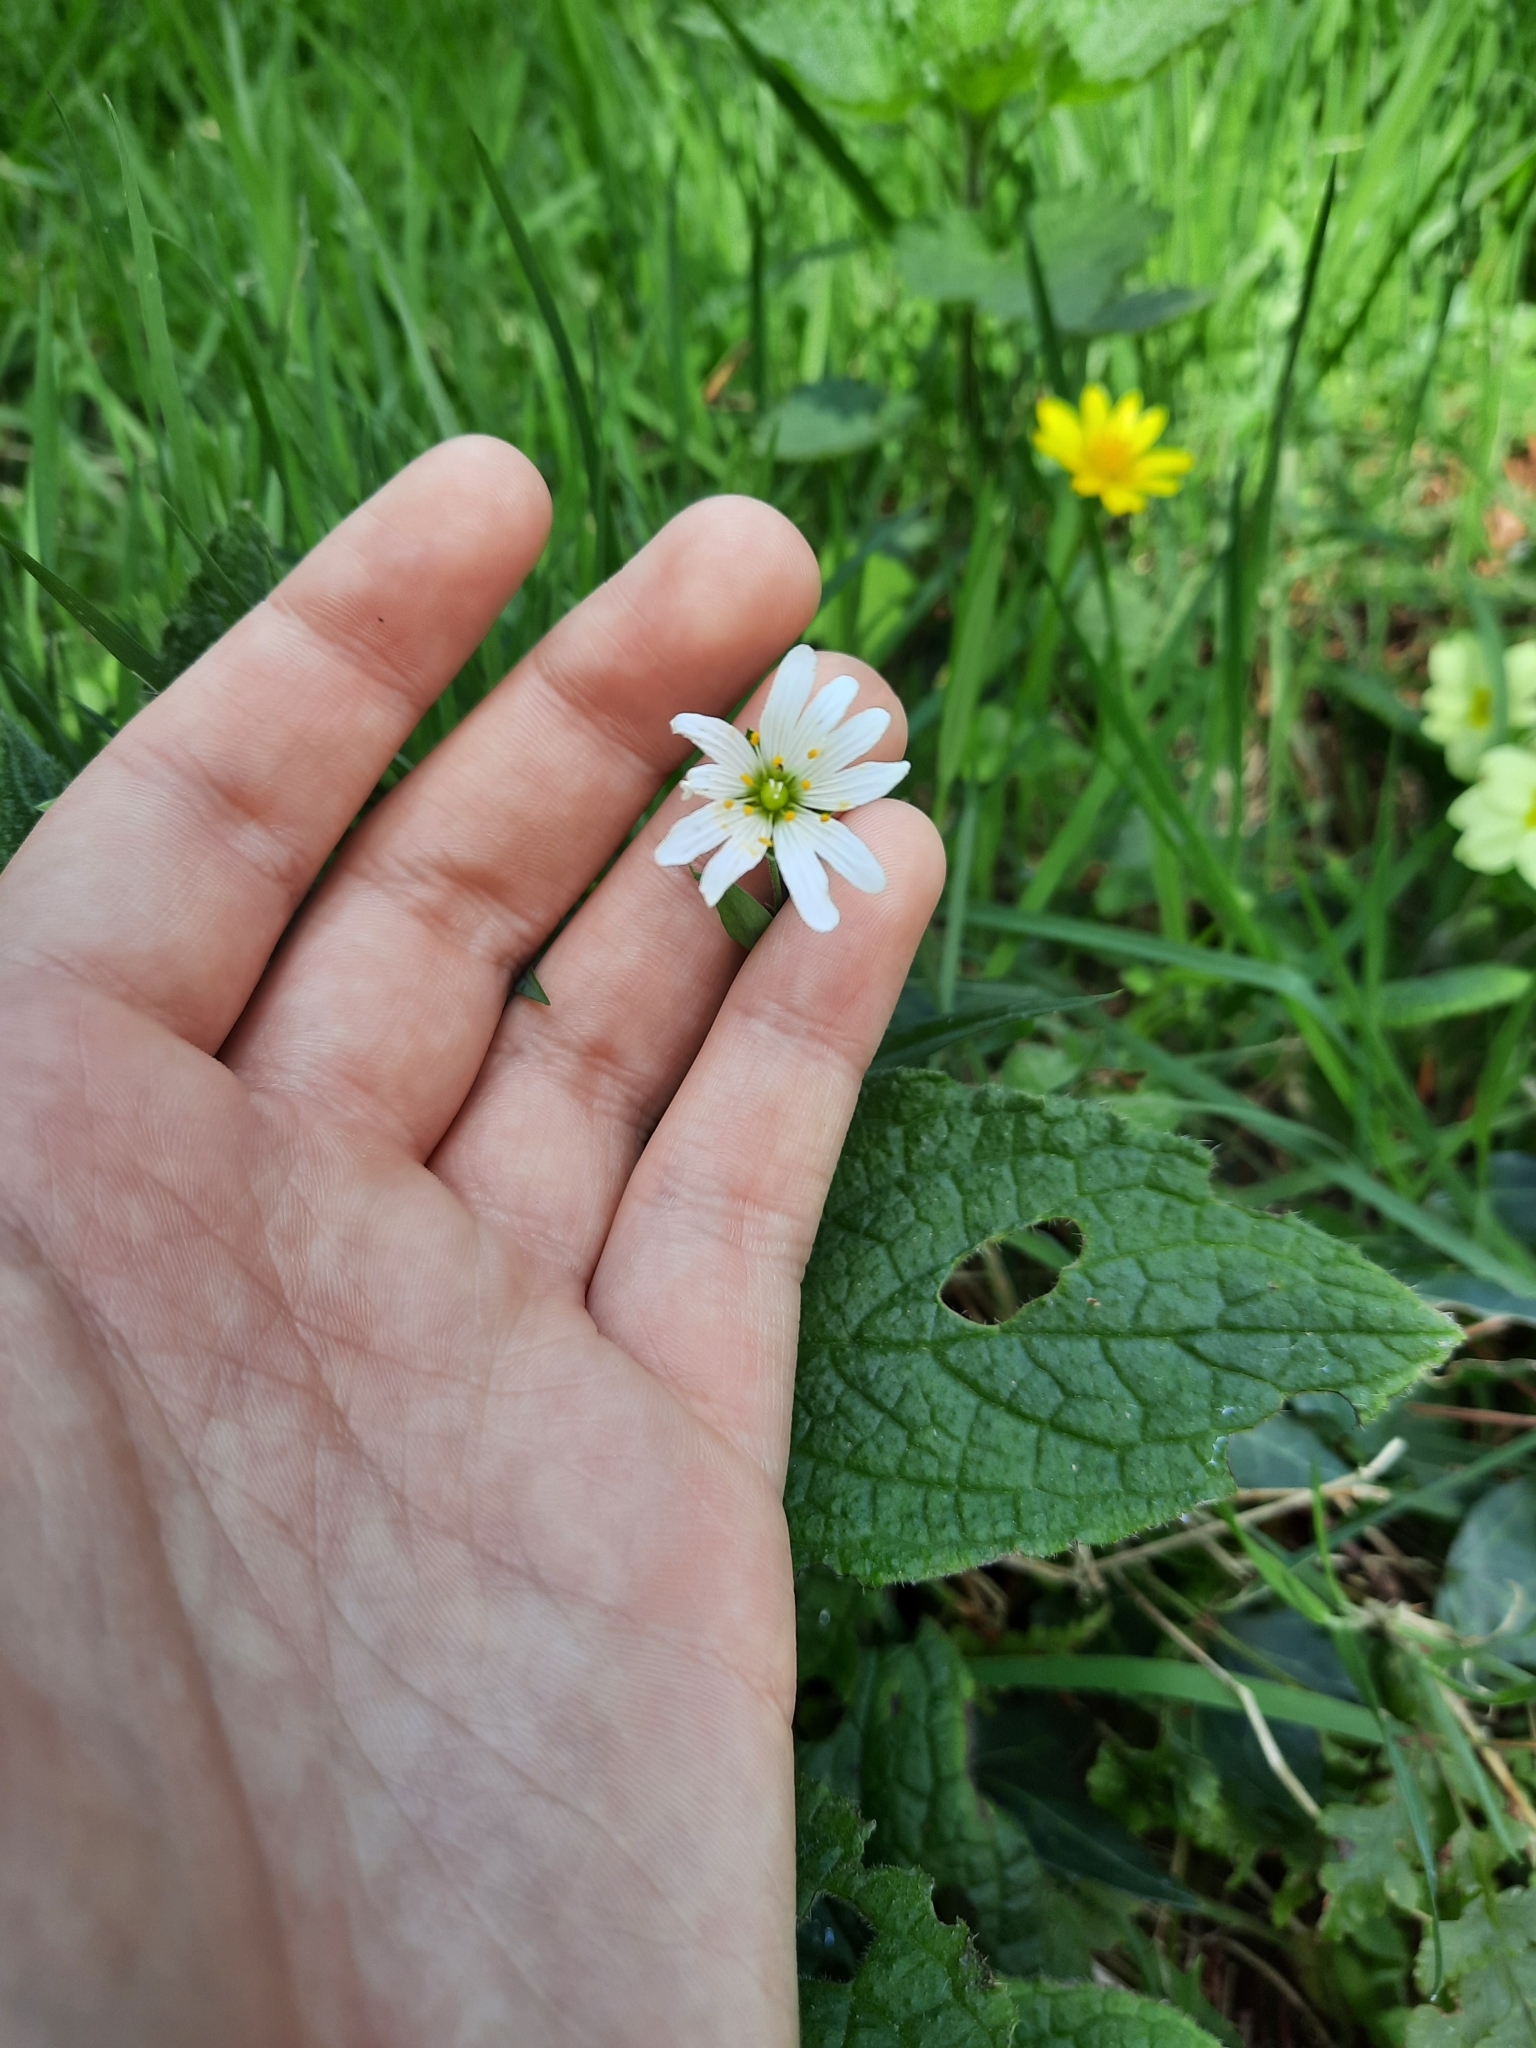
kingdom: Plantae
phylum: Tracheophyta
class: Magnoliopsida
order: Caryophyllales
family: Caryophyllaceae
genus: Rabelera
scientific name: Rabelera holostea
